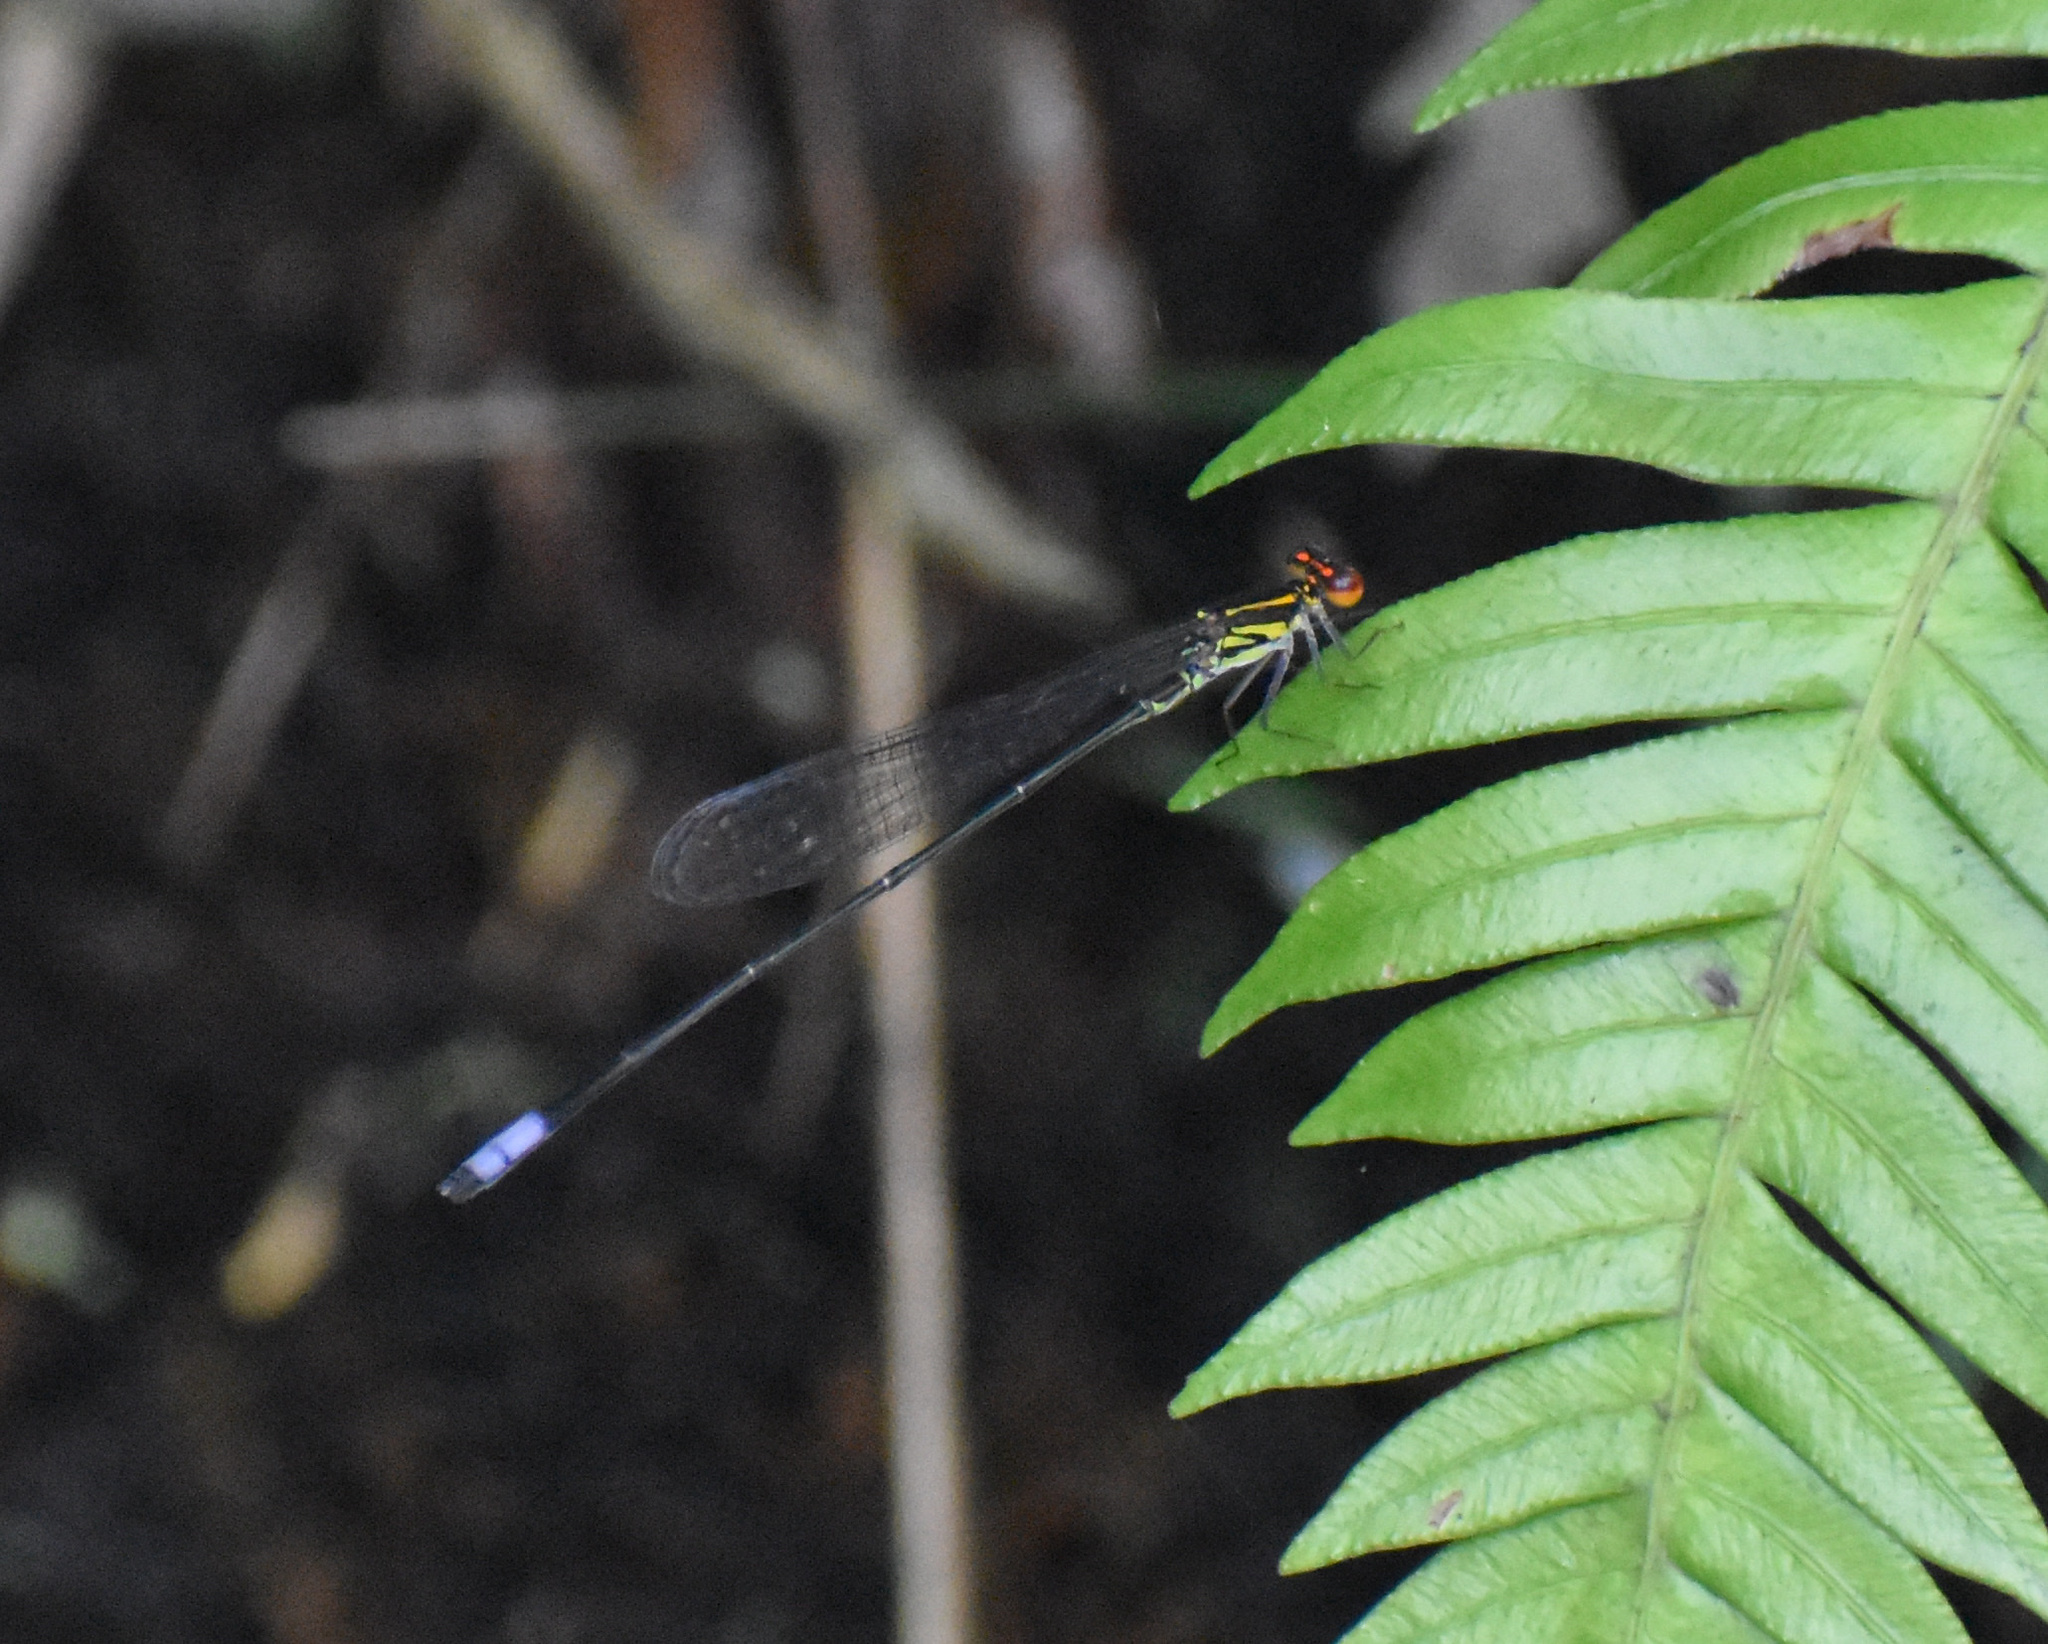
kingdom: Animalia
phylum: Arthropoda
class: Insecta
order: Odonata
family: Coenagrionidae
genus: Pseudagrion
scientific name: Pseudagrion hageni
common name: Painted sprite
